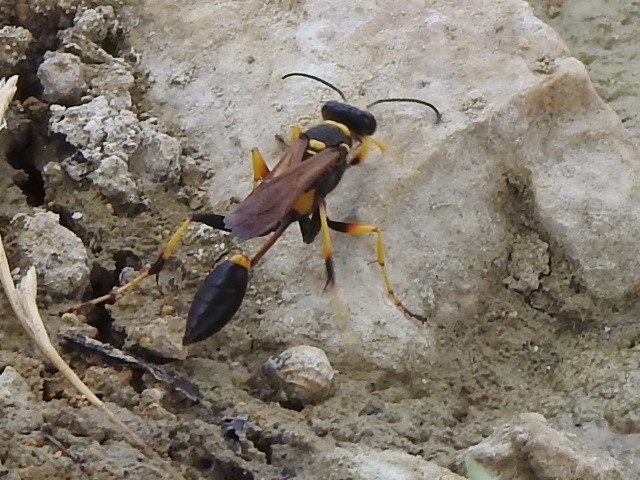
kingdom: Animalia
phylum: Arthropoda
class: Insecta
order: Hymenoptera
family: Sphecidae
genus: Sceliphron
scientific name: Sceliphron caementarium
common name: Mud dauber
